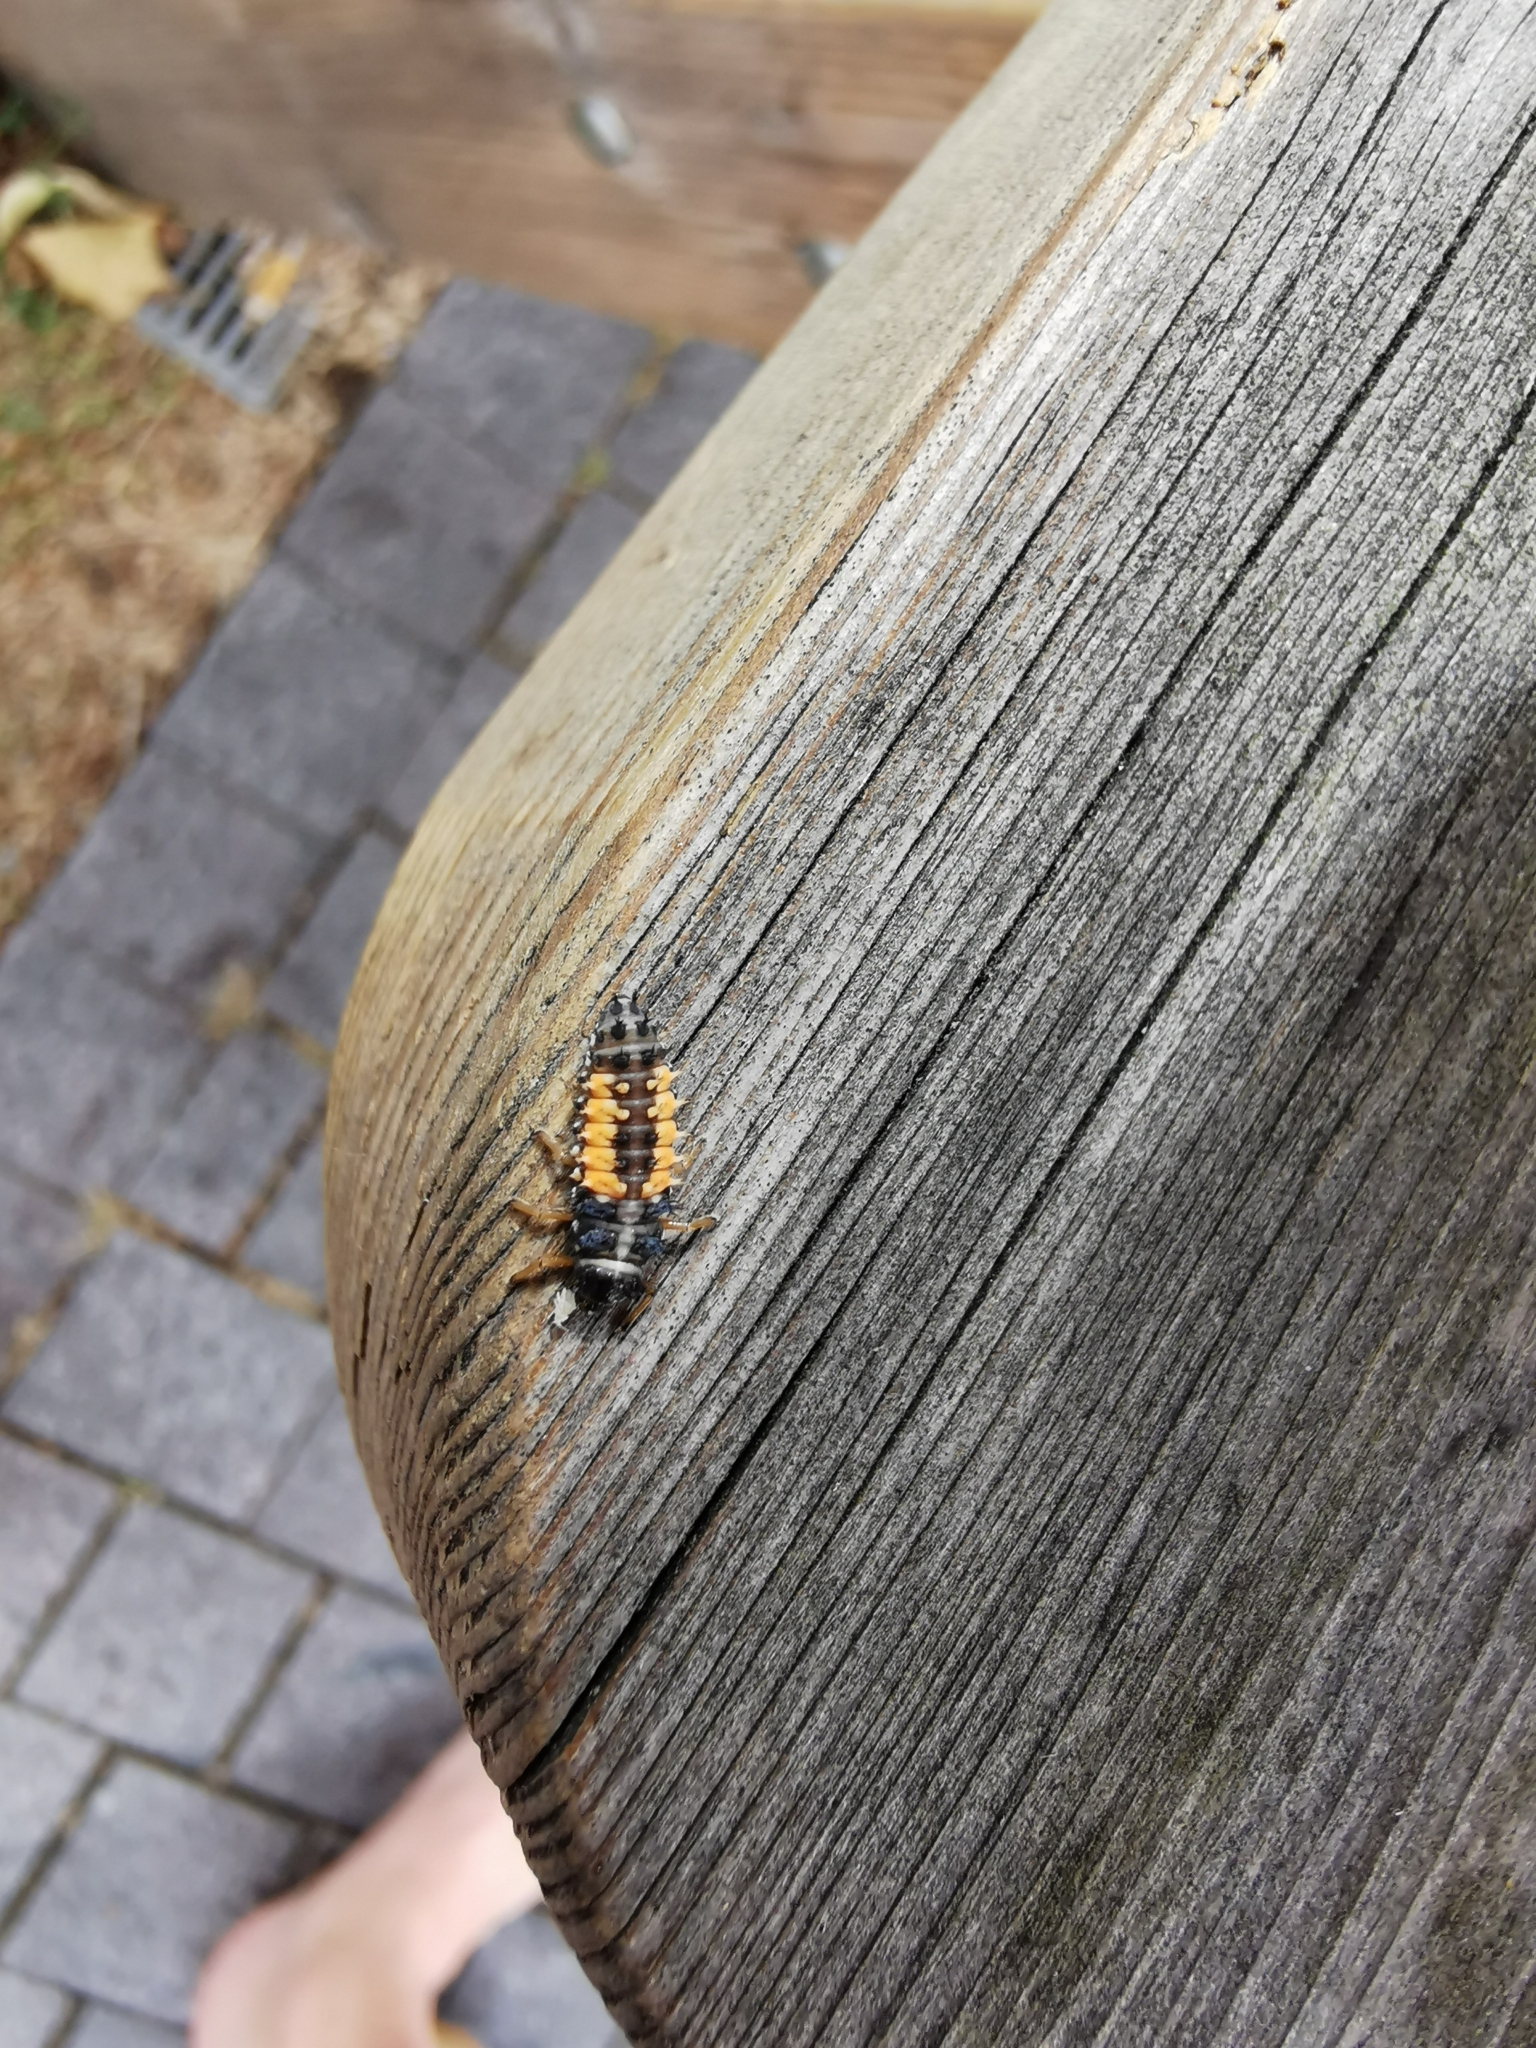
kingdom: Animalia
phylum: Arthropoda
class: Insecta
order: Coleoptera
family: Coccinellidae
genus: Harmonia
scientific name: Harmonia axyridis
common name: Harlequin ladybird
